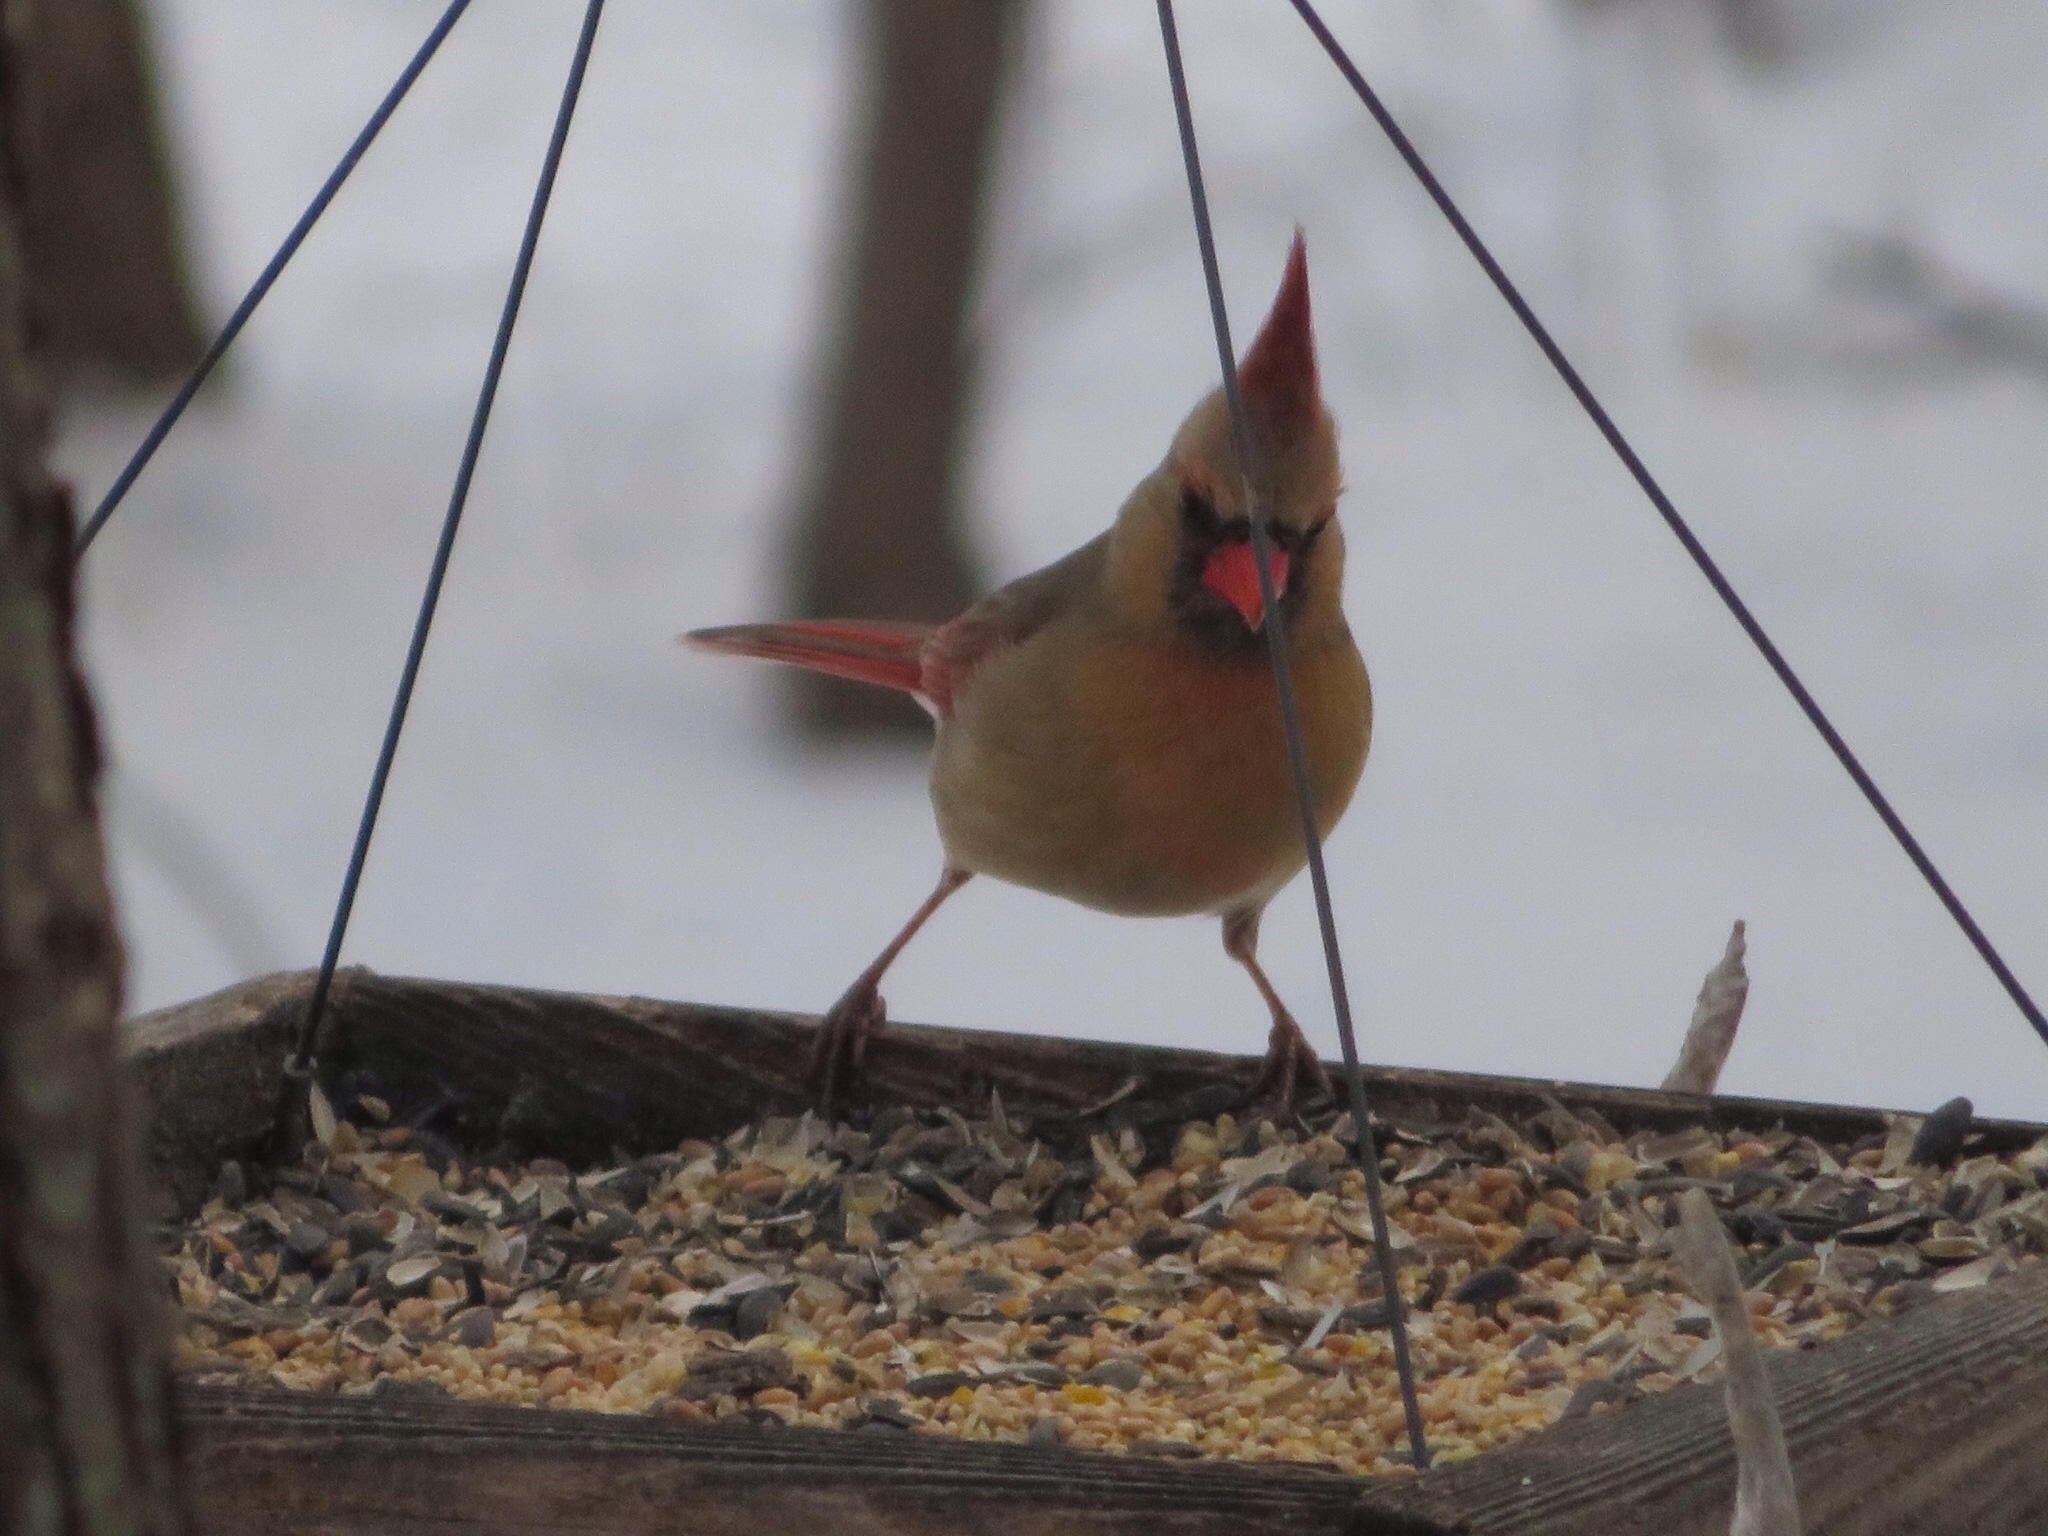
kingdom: Animalia
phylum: Chordata
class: Aves
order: Passeriformes
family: Cardinalidae
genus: Cardinalis
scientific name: Cardinalis cardinalis
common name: Northern cardinal
